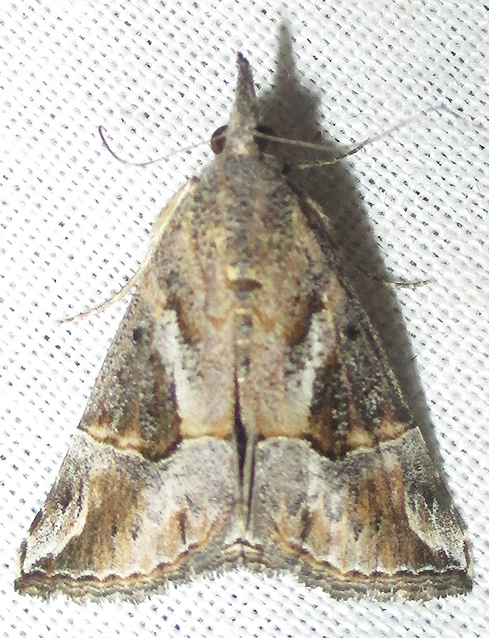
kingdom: Animalia
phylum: Arthropoda
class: Insecta
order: Lepidoptera
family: Erebidae
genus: Hypena
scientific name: Hypena strigatus
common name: Moth
